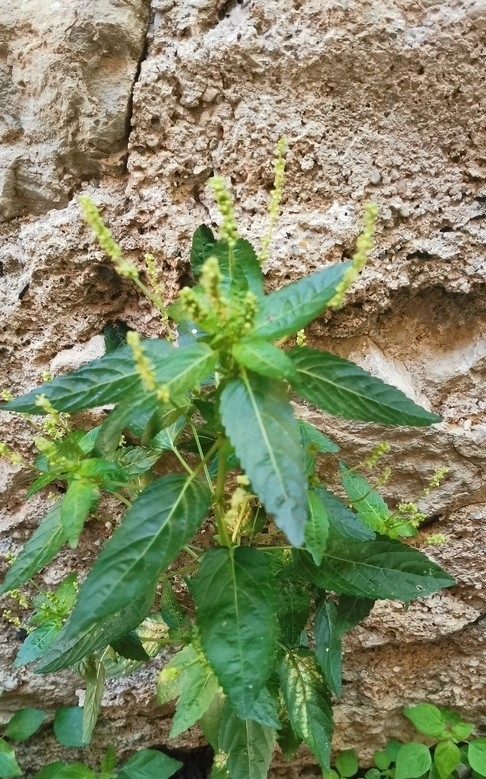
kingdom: Plantae
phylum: Tracheophyta
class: Magnoliopsida
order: Malpighiales
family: Euphorbiaceae
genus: Mercurialis
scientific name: Mercurialis annua
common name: Annual mercury
